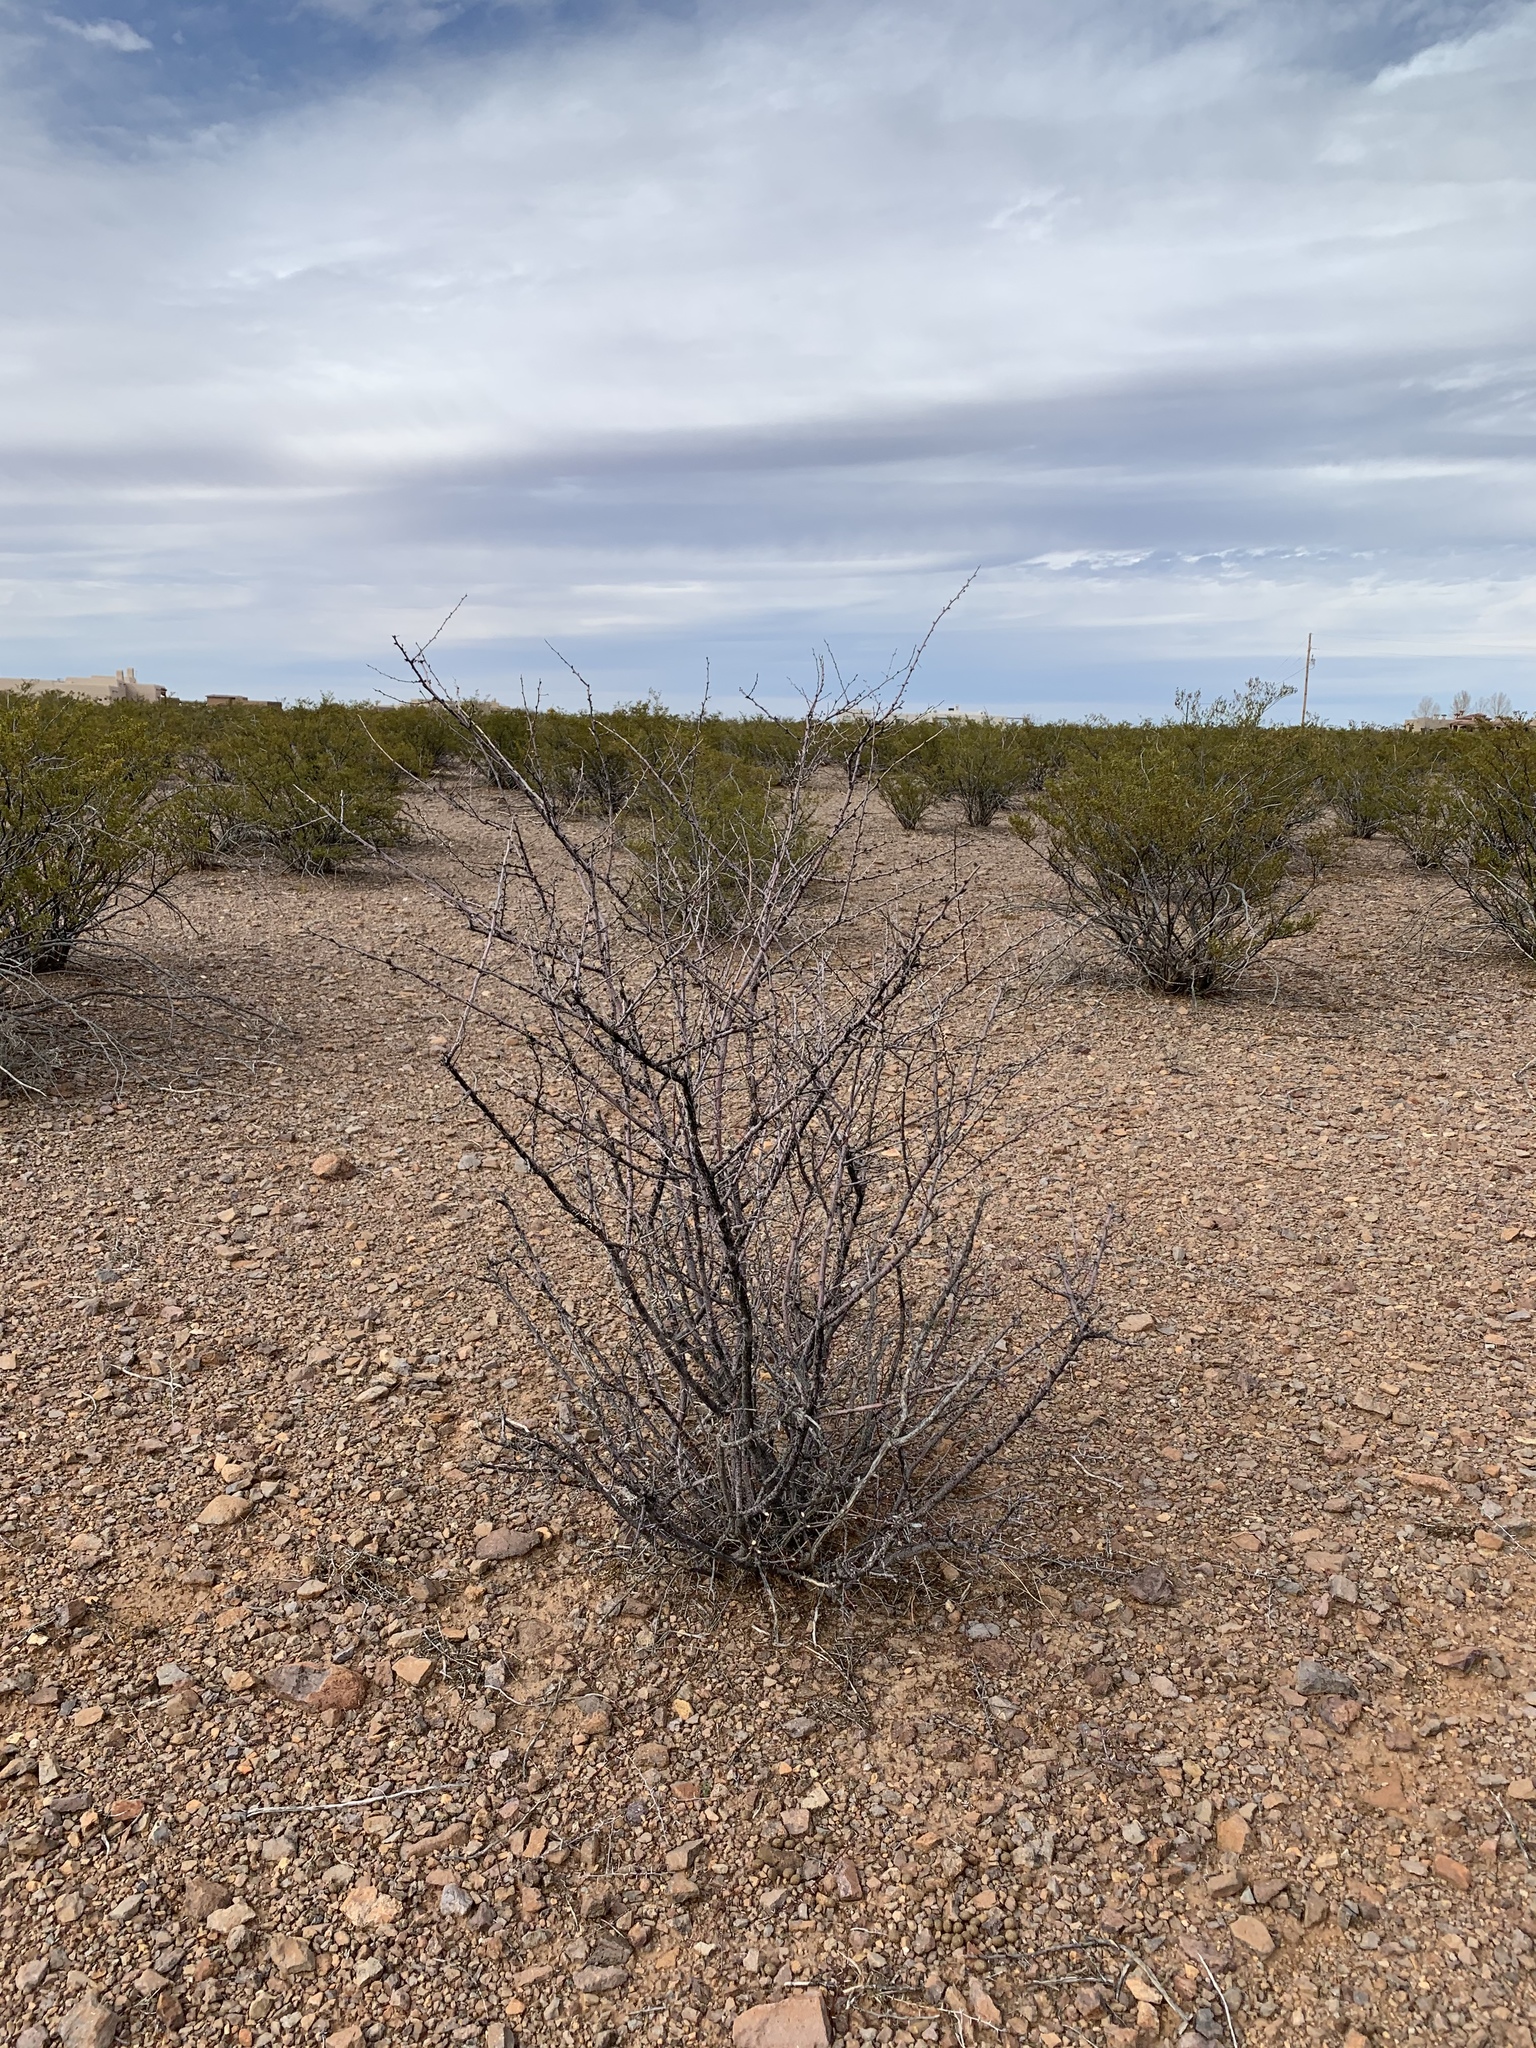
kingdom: Plantae
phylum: Tracheophyta
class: Magnoliopsida
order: Fabales
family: Fabaceae
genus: Vachellia
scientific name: Vachellia constricta
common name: Mescat acacia
